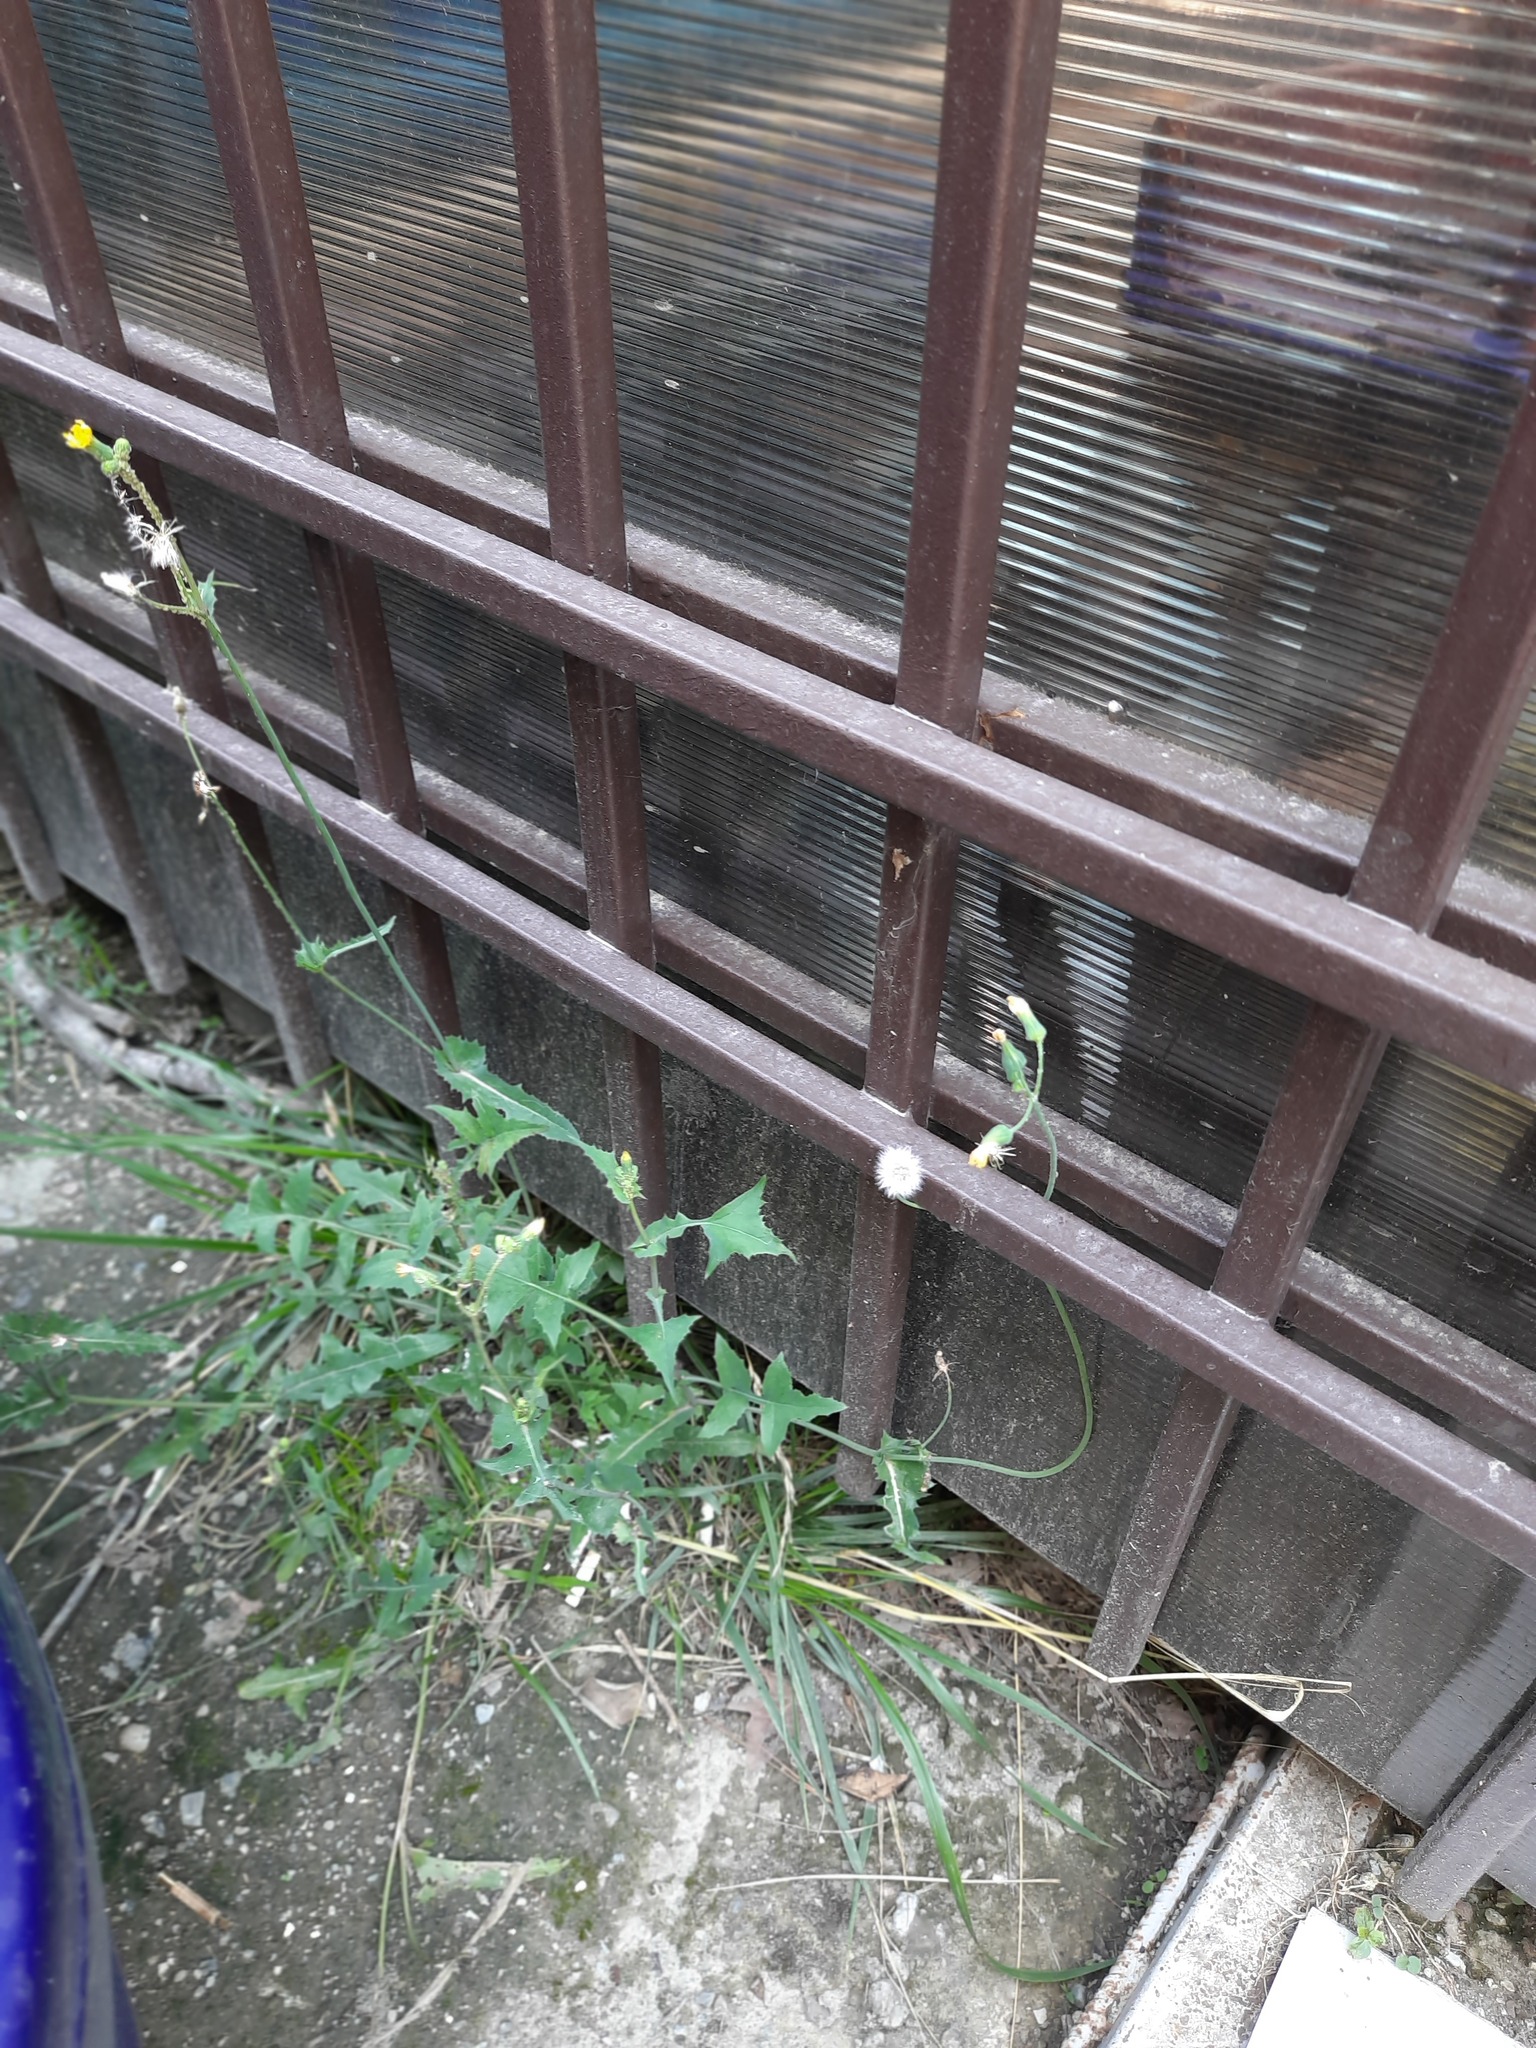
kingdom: Plantae
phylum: Tracheophyta
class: Magnoliopsida
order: Asterales
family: Asteraceae
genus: Sonchus
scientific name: Sonchus oleraceus
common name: Common sowthistle
